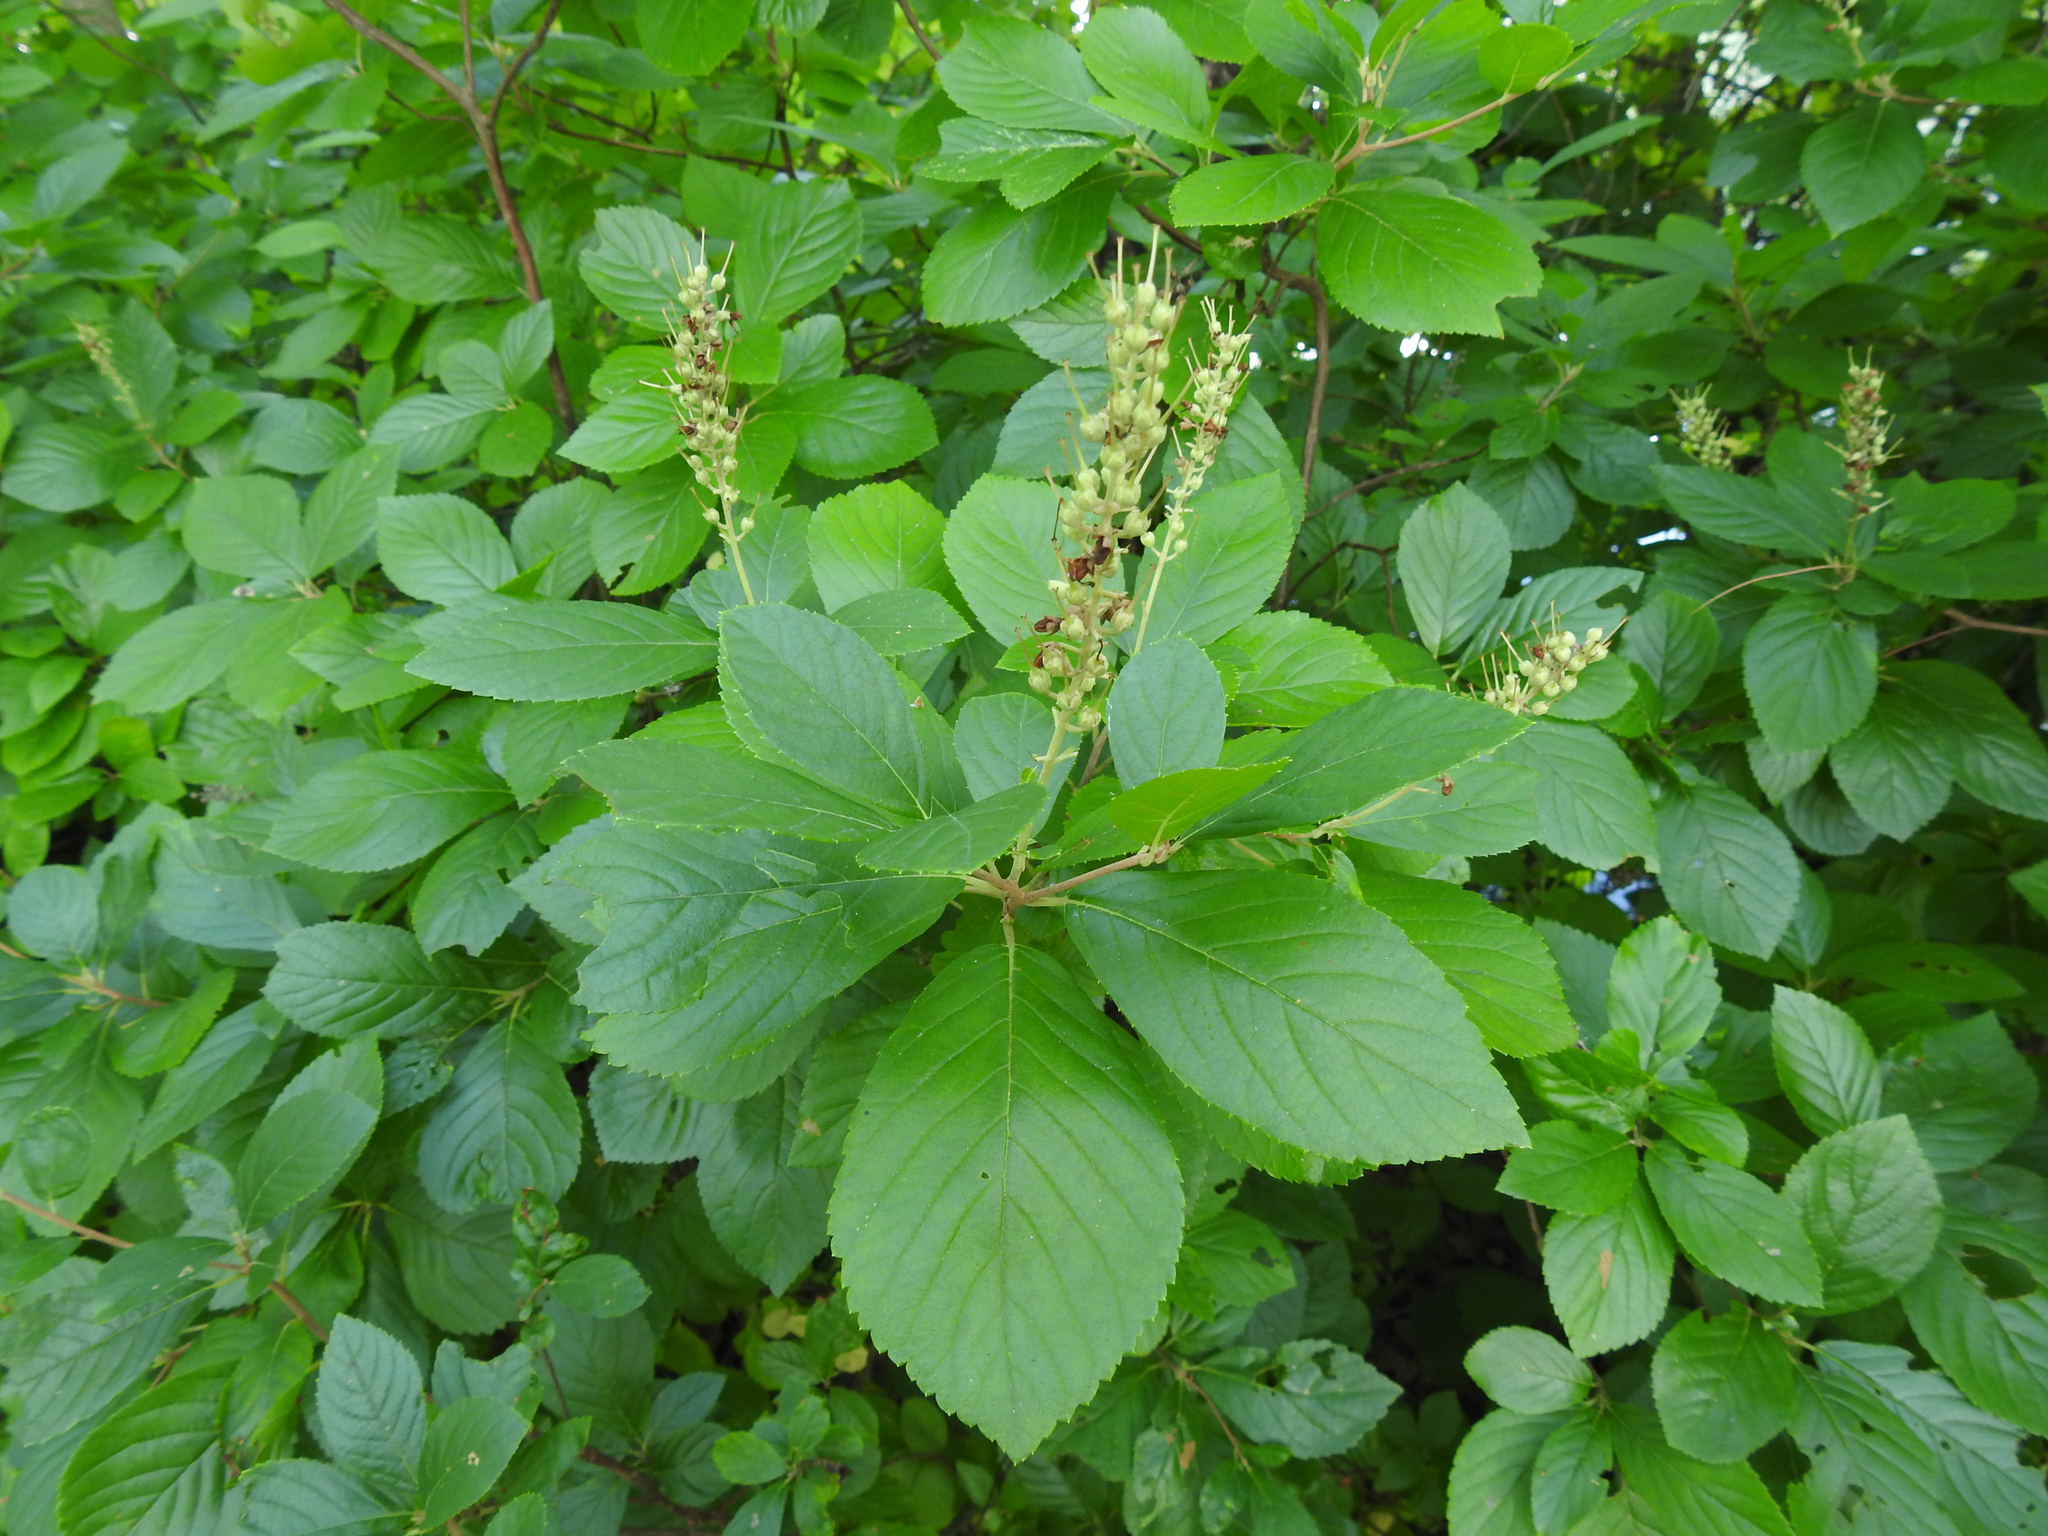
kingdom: Plantae
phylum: Tracheophyta
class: Magnoliopsida
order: Ericales
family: Clethraceae
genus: Clethra
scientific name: Clethra alnifolia
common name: Sweet pepperbush
